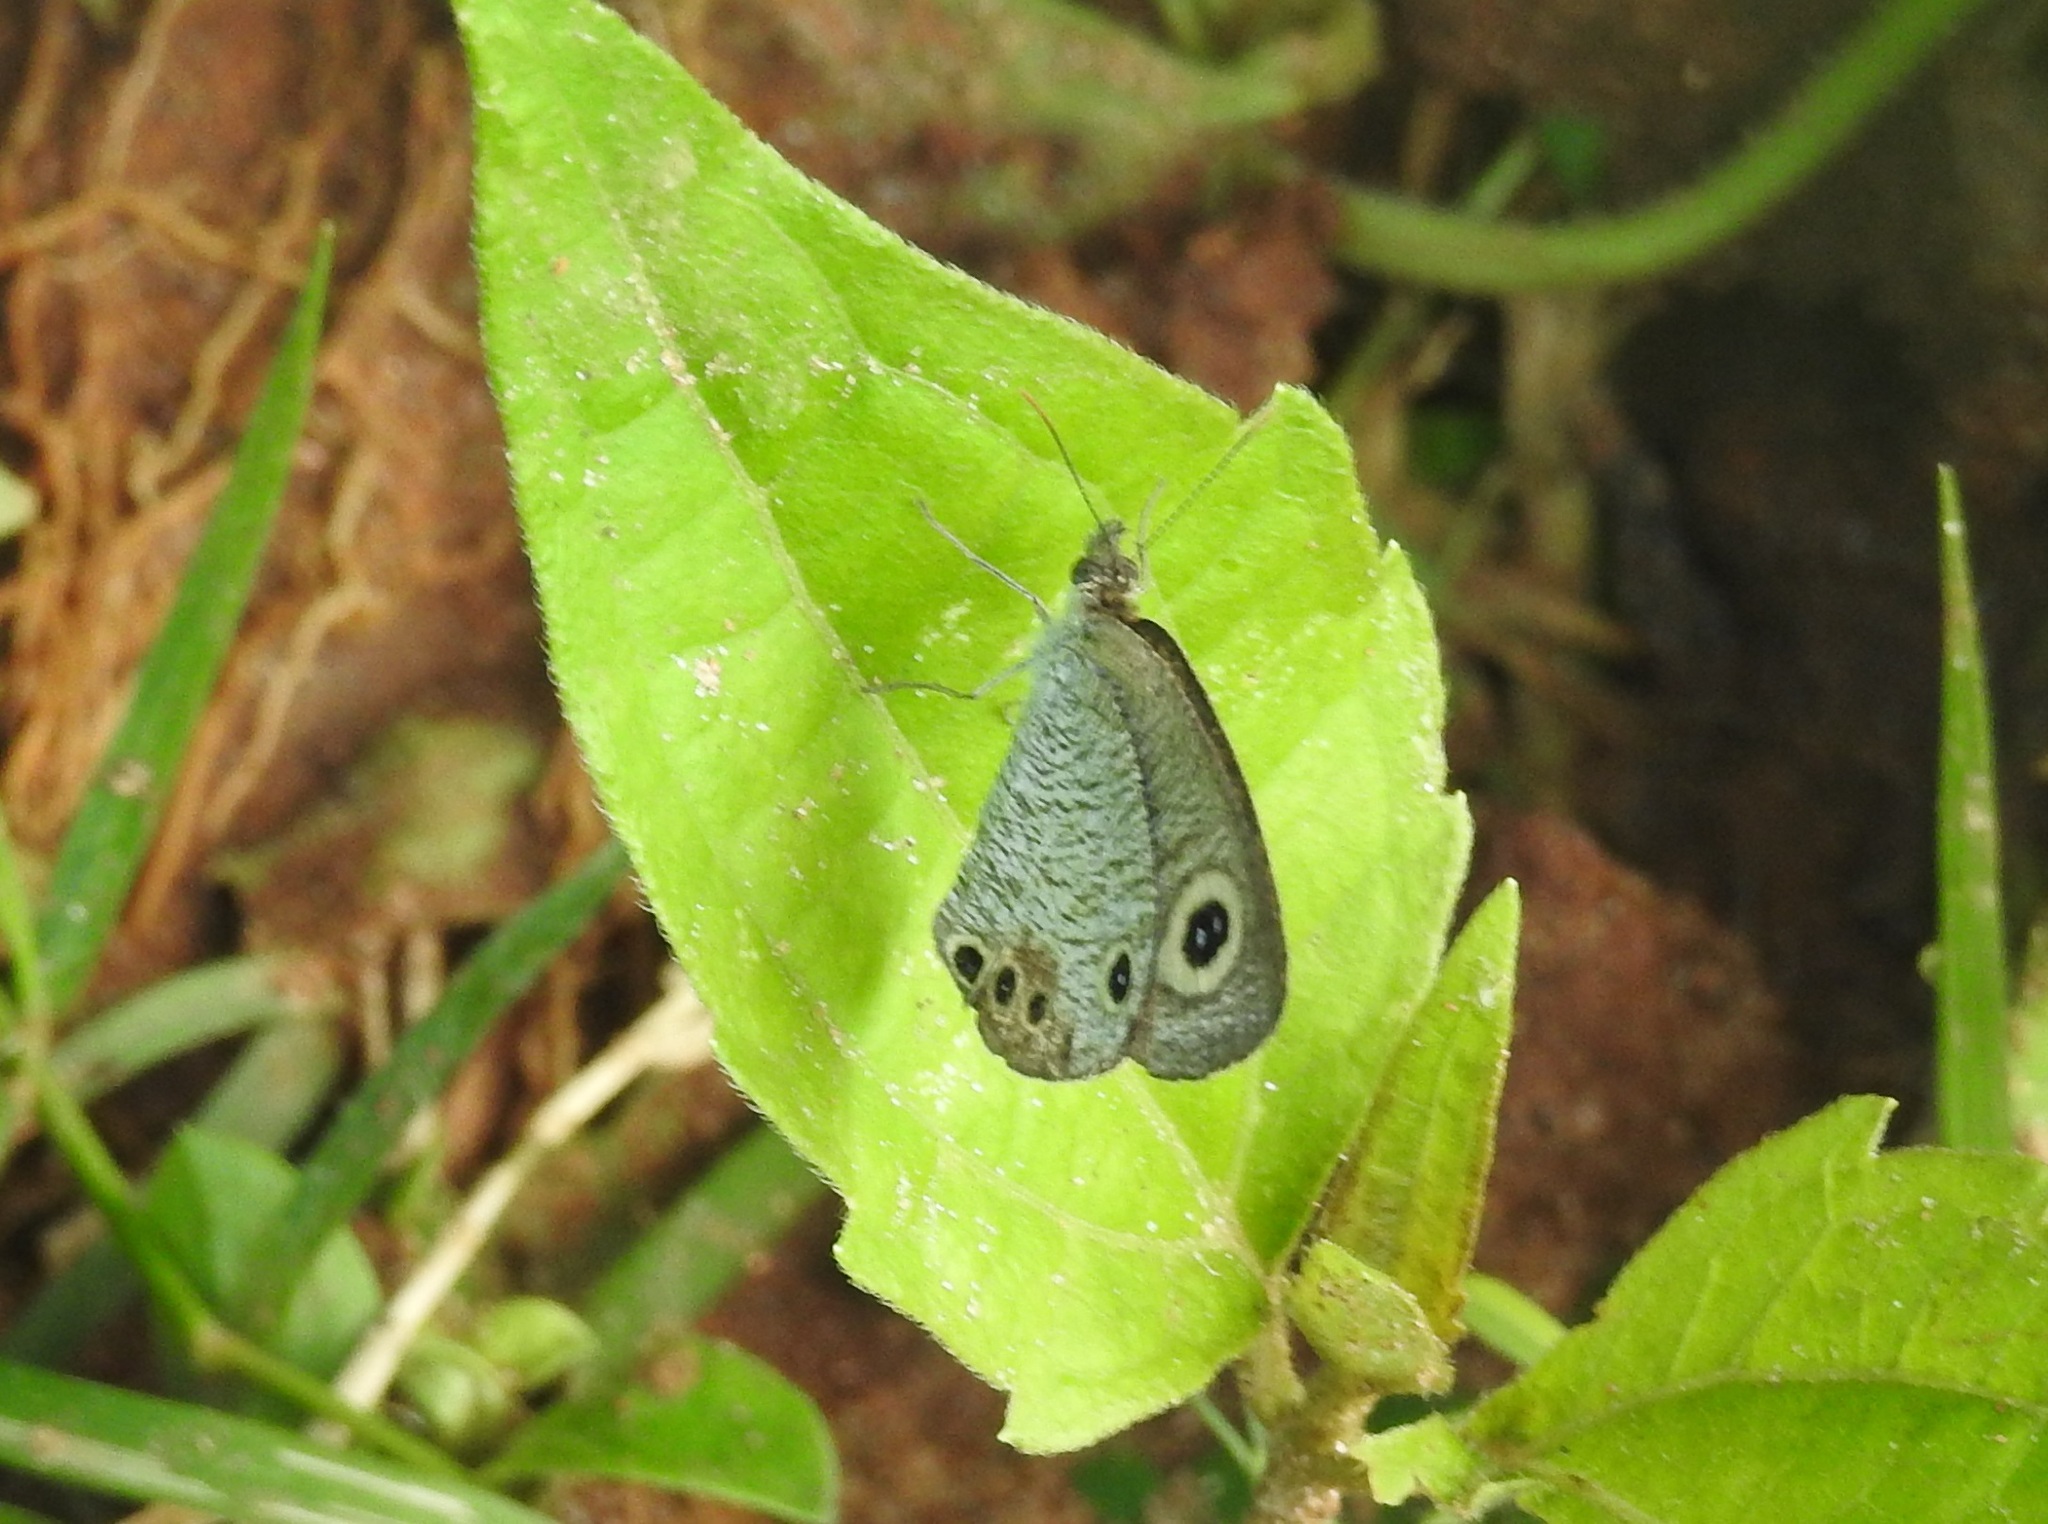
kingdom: Animalia
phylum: Arthropoda
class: Insecta
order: Lepidoptera
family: Nymphalidae
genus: Ypthima
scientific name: Ypthima huebneri
